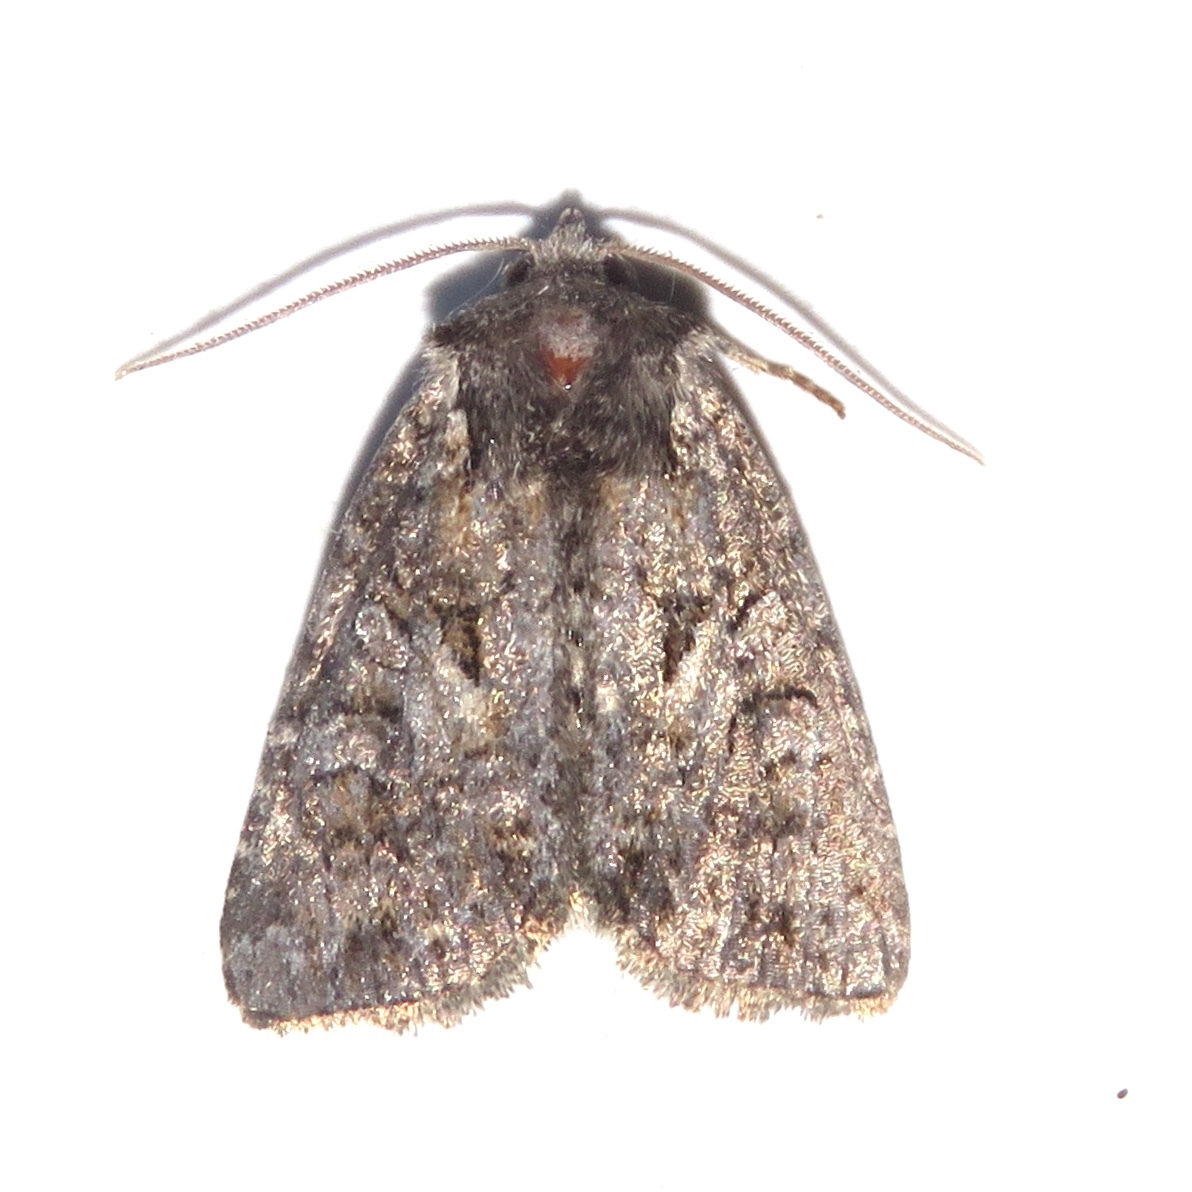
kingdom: Animalia
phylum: Arthropoda
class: Insecta
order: Lepidoptera
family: Noctuidae
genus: Orthodes
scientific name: Orthodes detracta
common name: Disparaged arches moth
